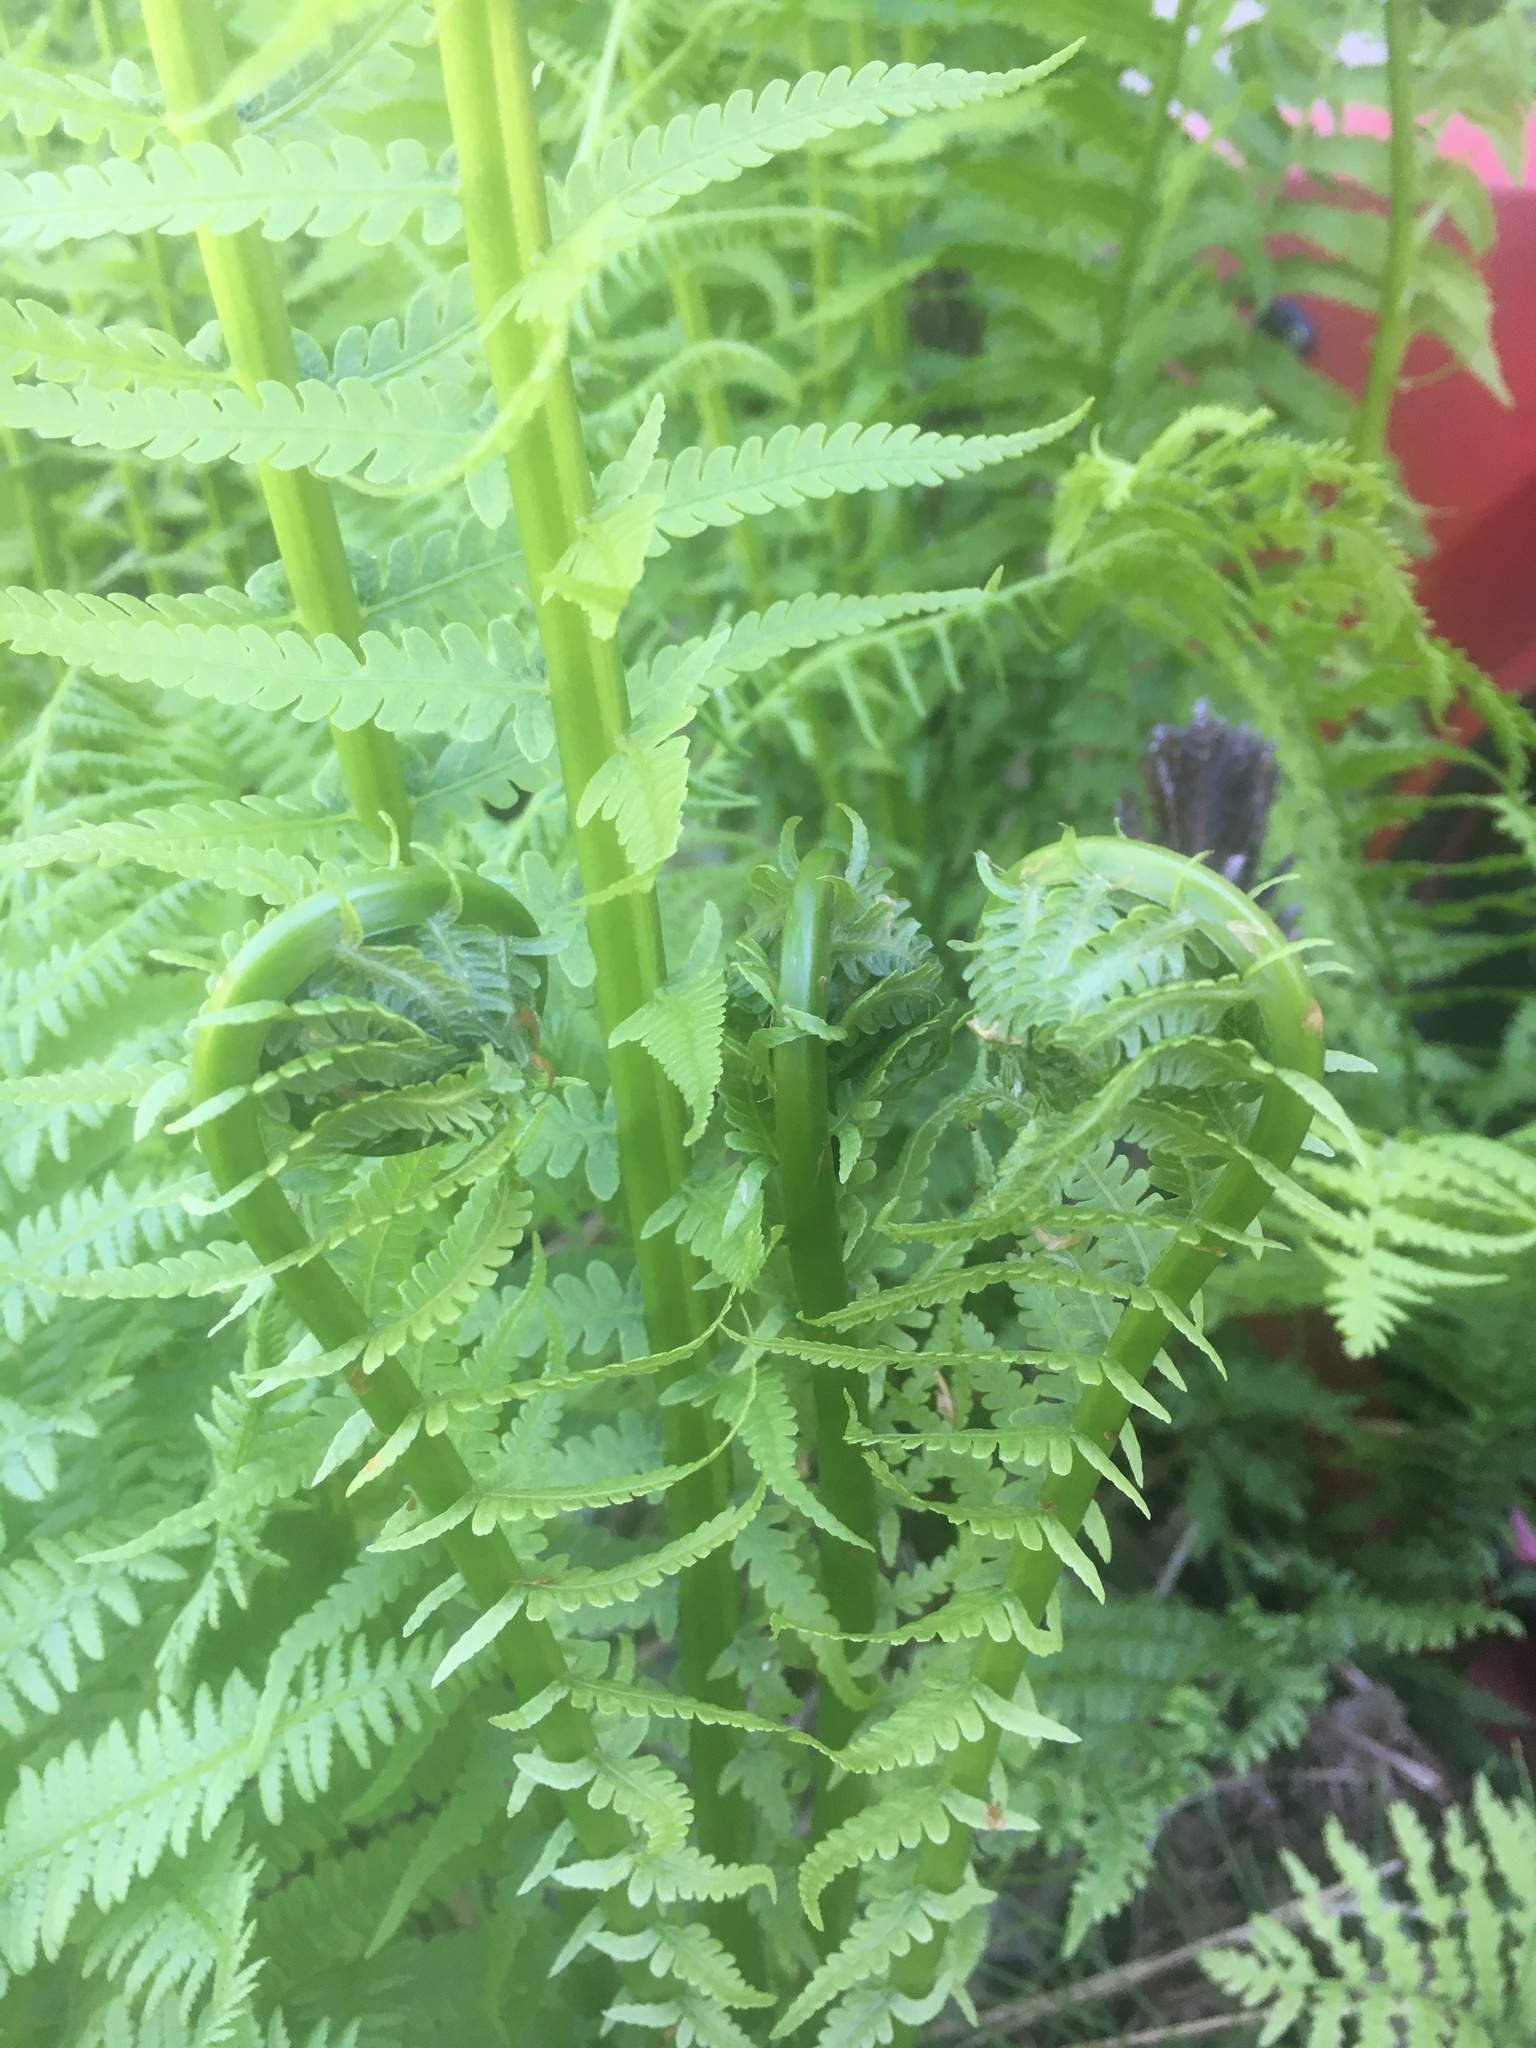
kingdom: Plantae
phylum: Tracheophyta
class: Polypodiopsida
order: Polypodiales
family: Onocleaceae
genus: Matteuccia
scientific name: Matteuccia struthiopteris
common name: Ostrich fern
